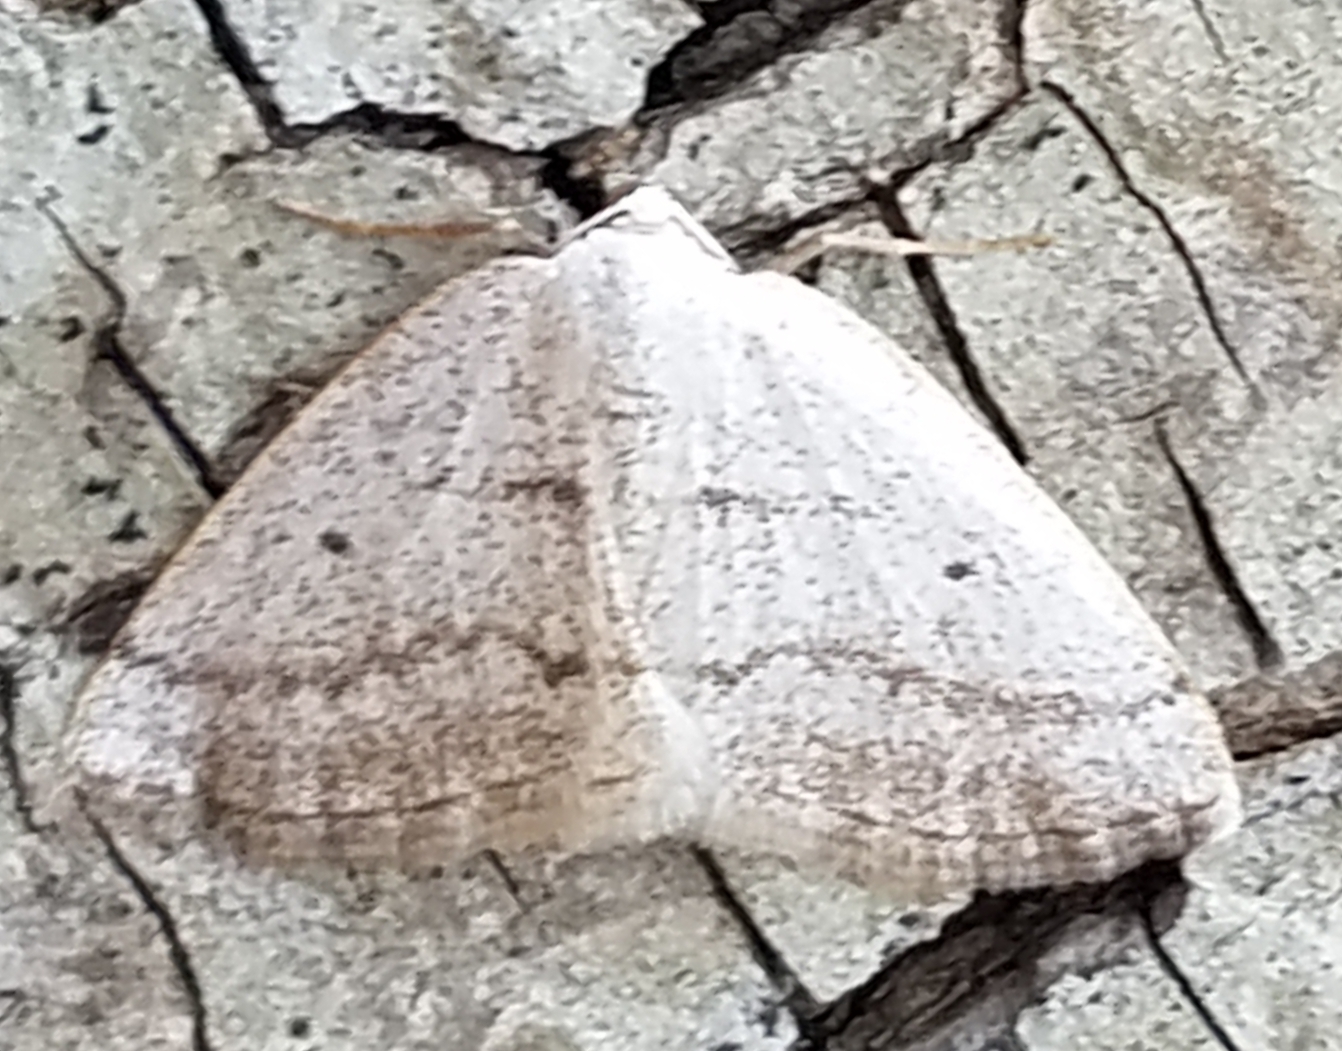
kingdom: Animalia
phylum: Arthropoda
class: Insecta
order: Lepidoptera
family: Geometridae
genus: Lomographa
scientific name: Lomographa glomeraria
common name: Gray spring moth
